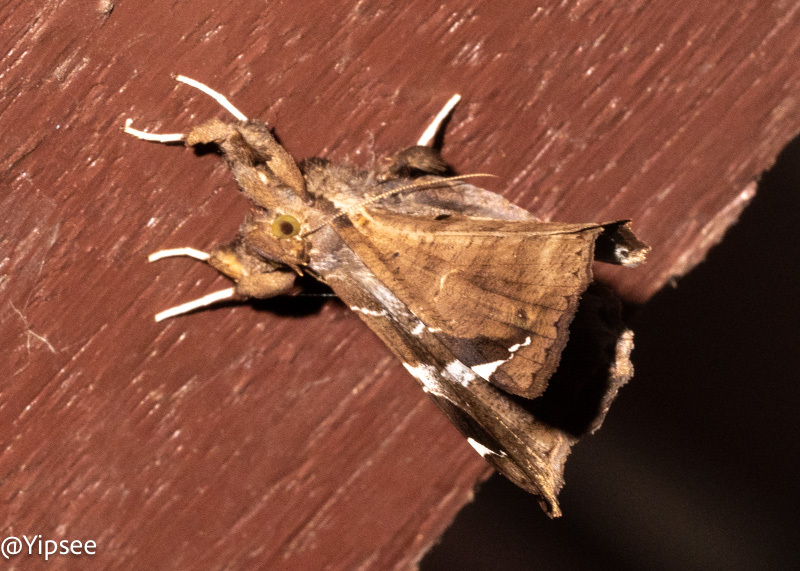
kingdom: Animalia
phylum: Arthropoda
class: Insecta
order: Lepidoptera
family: Erebidae
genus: Claterna
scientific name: Claterna cydonia
